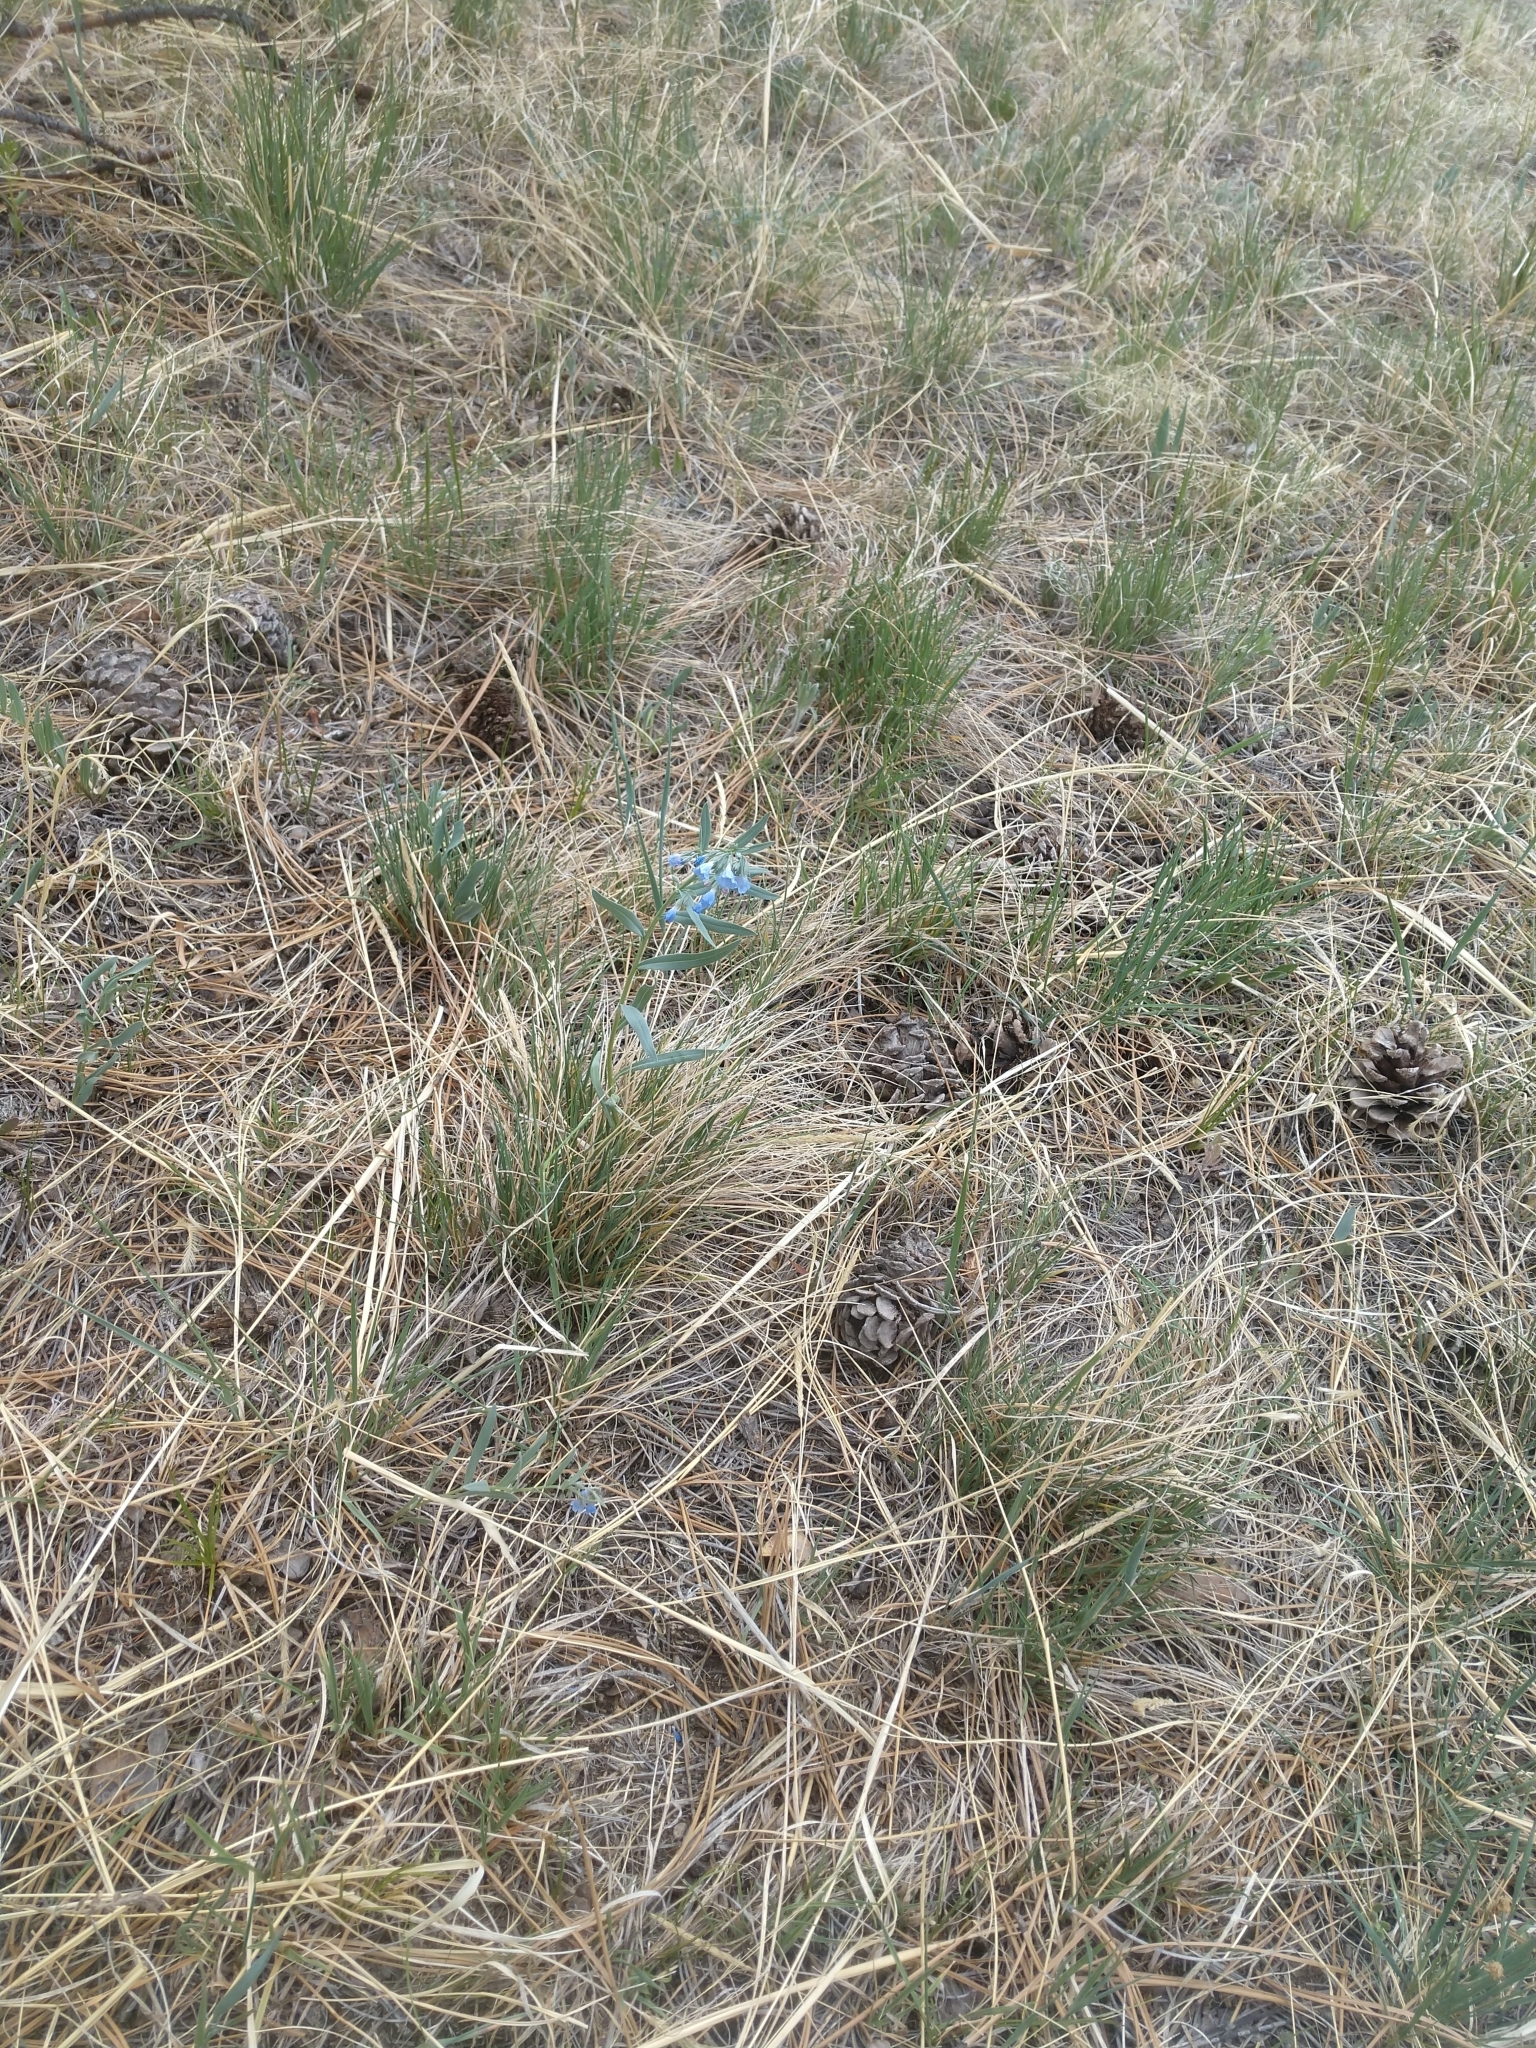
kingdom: Plantae
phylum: Tracheophyta
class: Magnoliopsida
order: Boraginales
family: Boraginaceae
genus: Mertensia
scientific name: Mertensia lanceolata
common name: Lance-leaved bluebells
